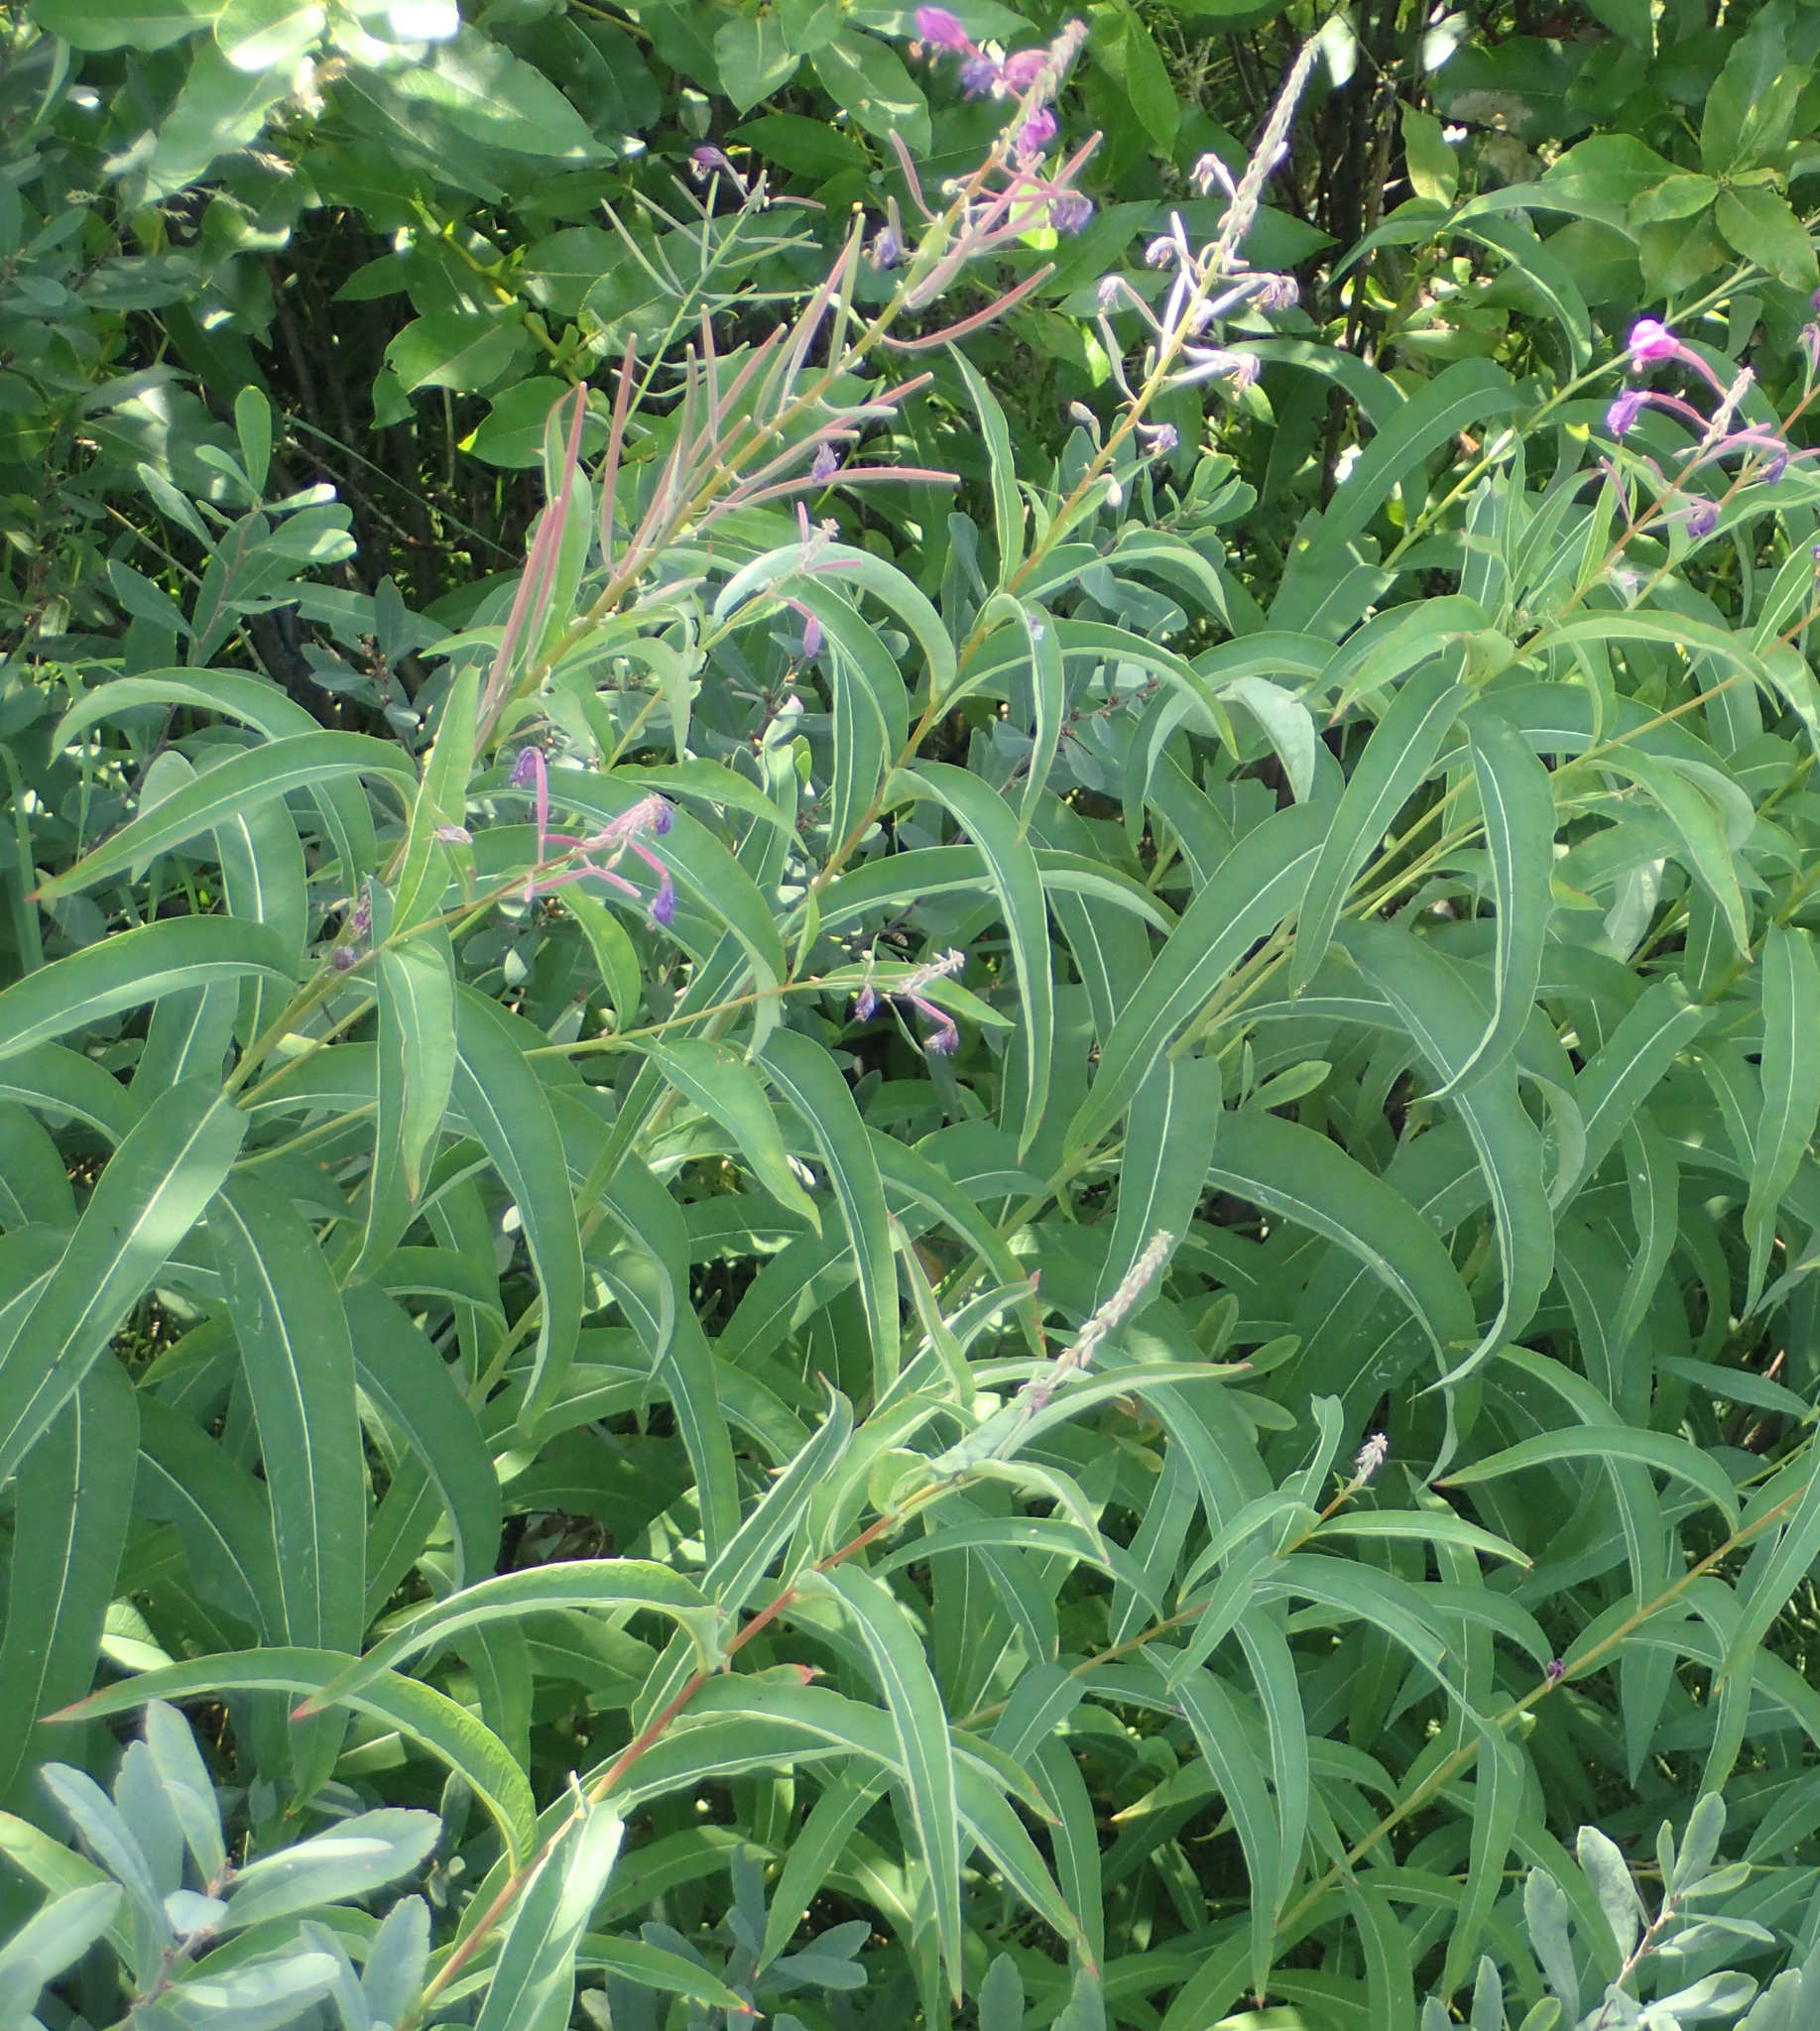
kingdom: Plantae
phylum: Tracheophyta
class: Magnoliopsida
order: Myrtales
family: Onagraceae
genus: Chamaenerion
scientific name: Chamaenerion angustifolium
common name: Fireweed
